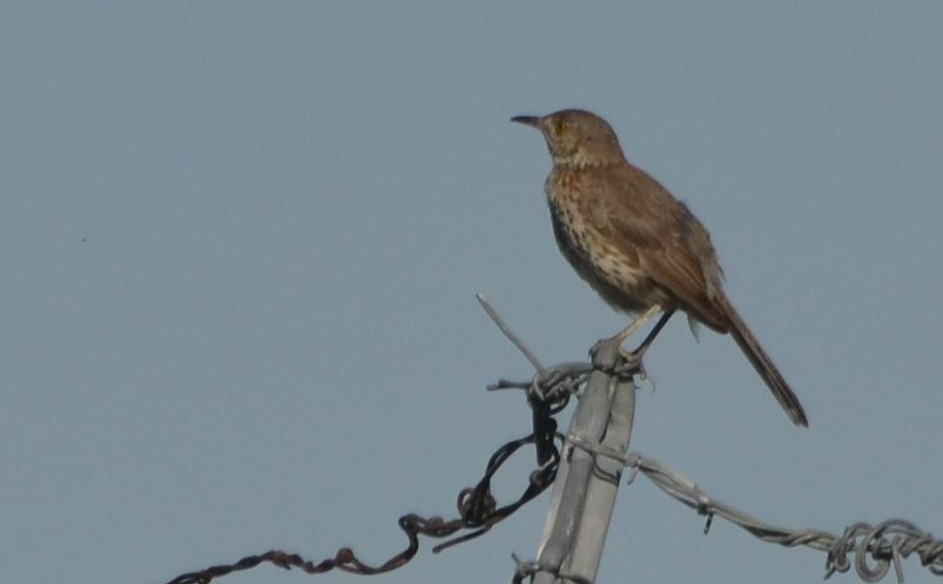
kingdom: Animalia
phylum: Chordata
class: Aves
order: Passeriformes
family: Mimidae
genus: Oreoscoptes
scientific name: Oreoscoptes montanus
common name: Sage thrasher
